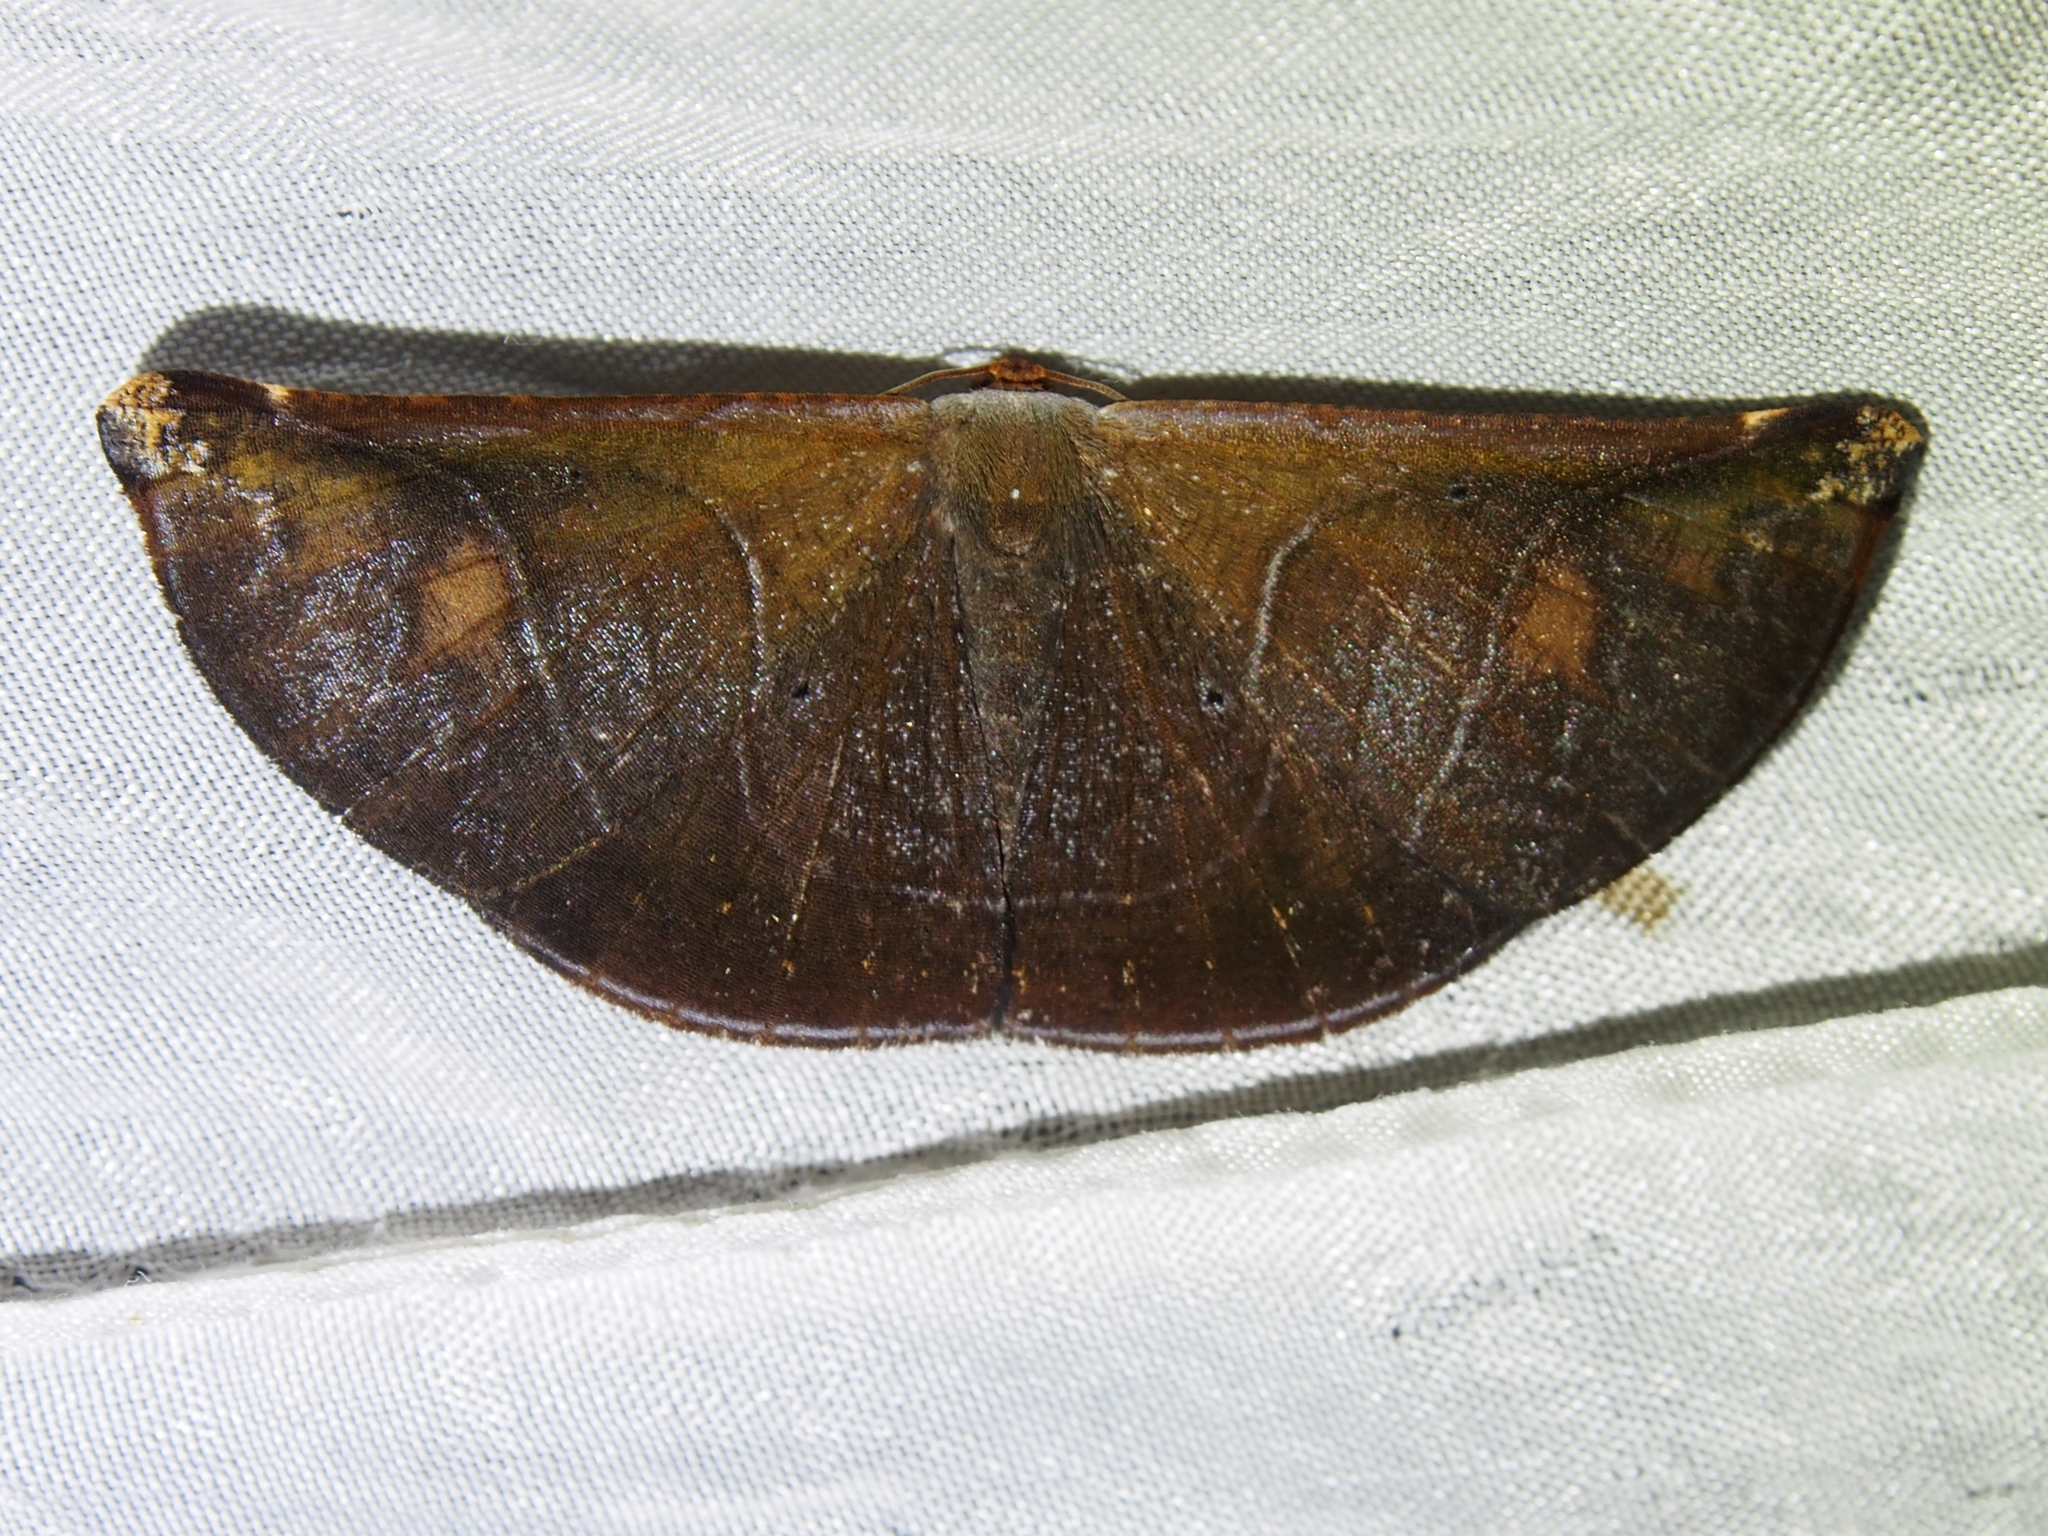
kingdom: Animalia
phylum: Arthropoda
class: Insecta
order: Lepidoptera
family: Geometridae
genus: Cyphoedma
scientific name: Cyphoedma
